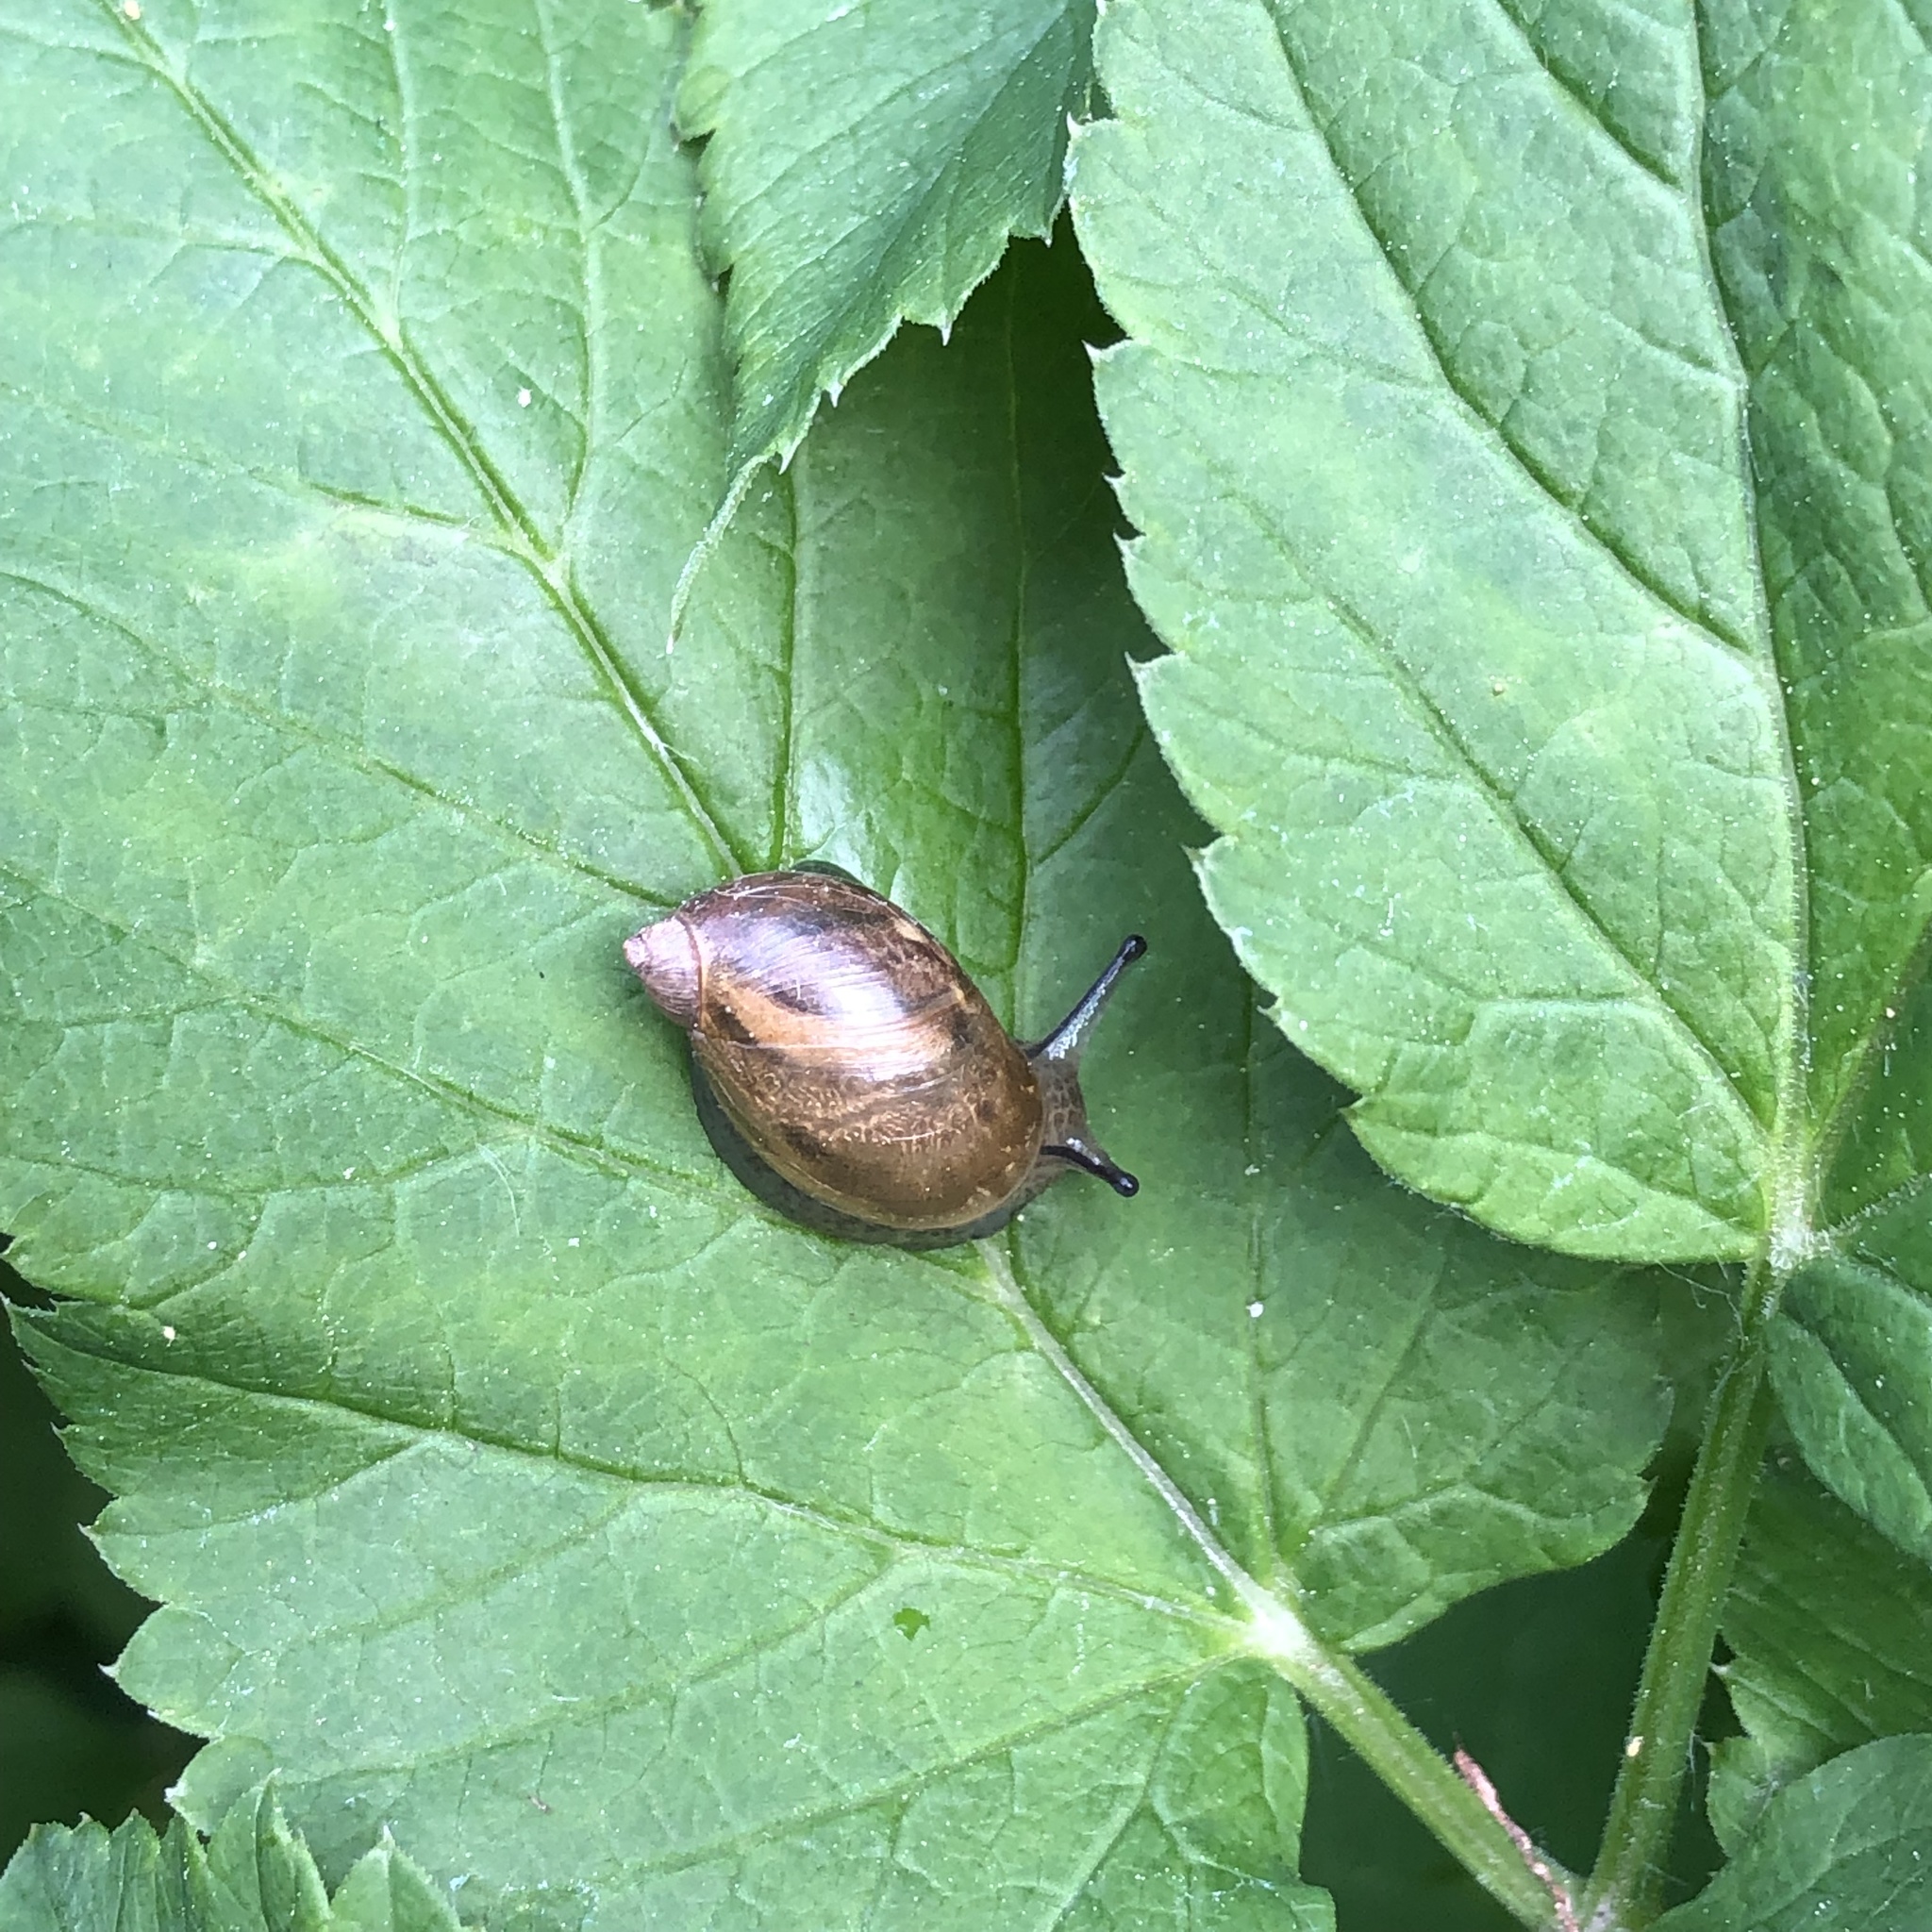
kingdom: Animalia
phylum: Mollusca
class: Gastropoda
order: Stylommatophora
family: Succineidae
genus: Succinea
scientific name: Succinea putris
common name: European ambersnail
